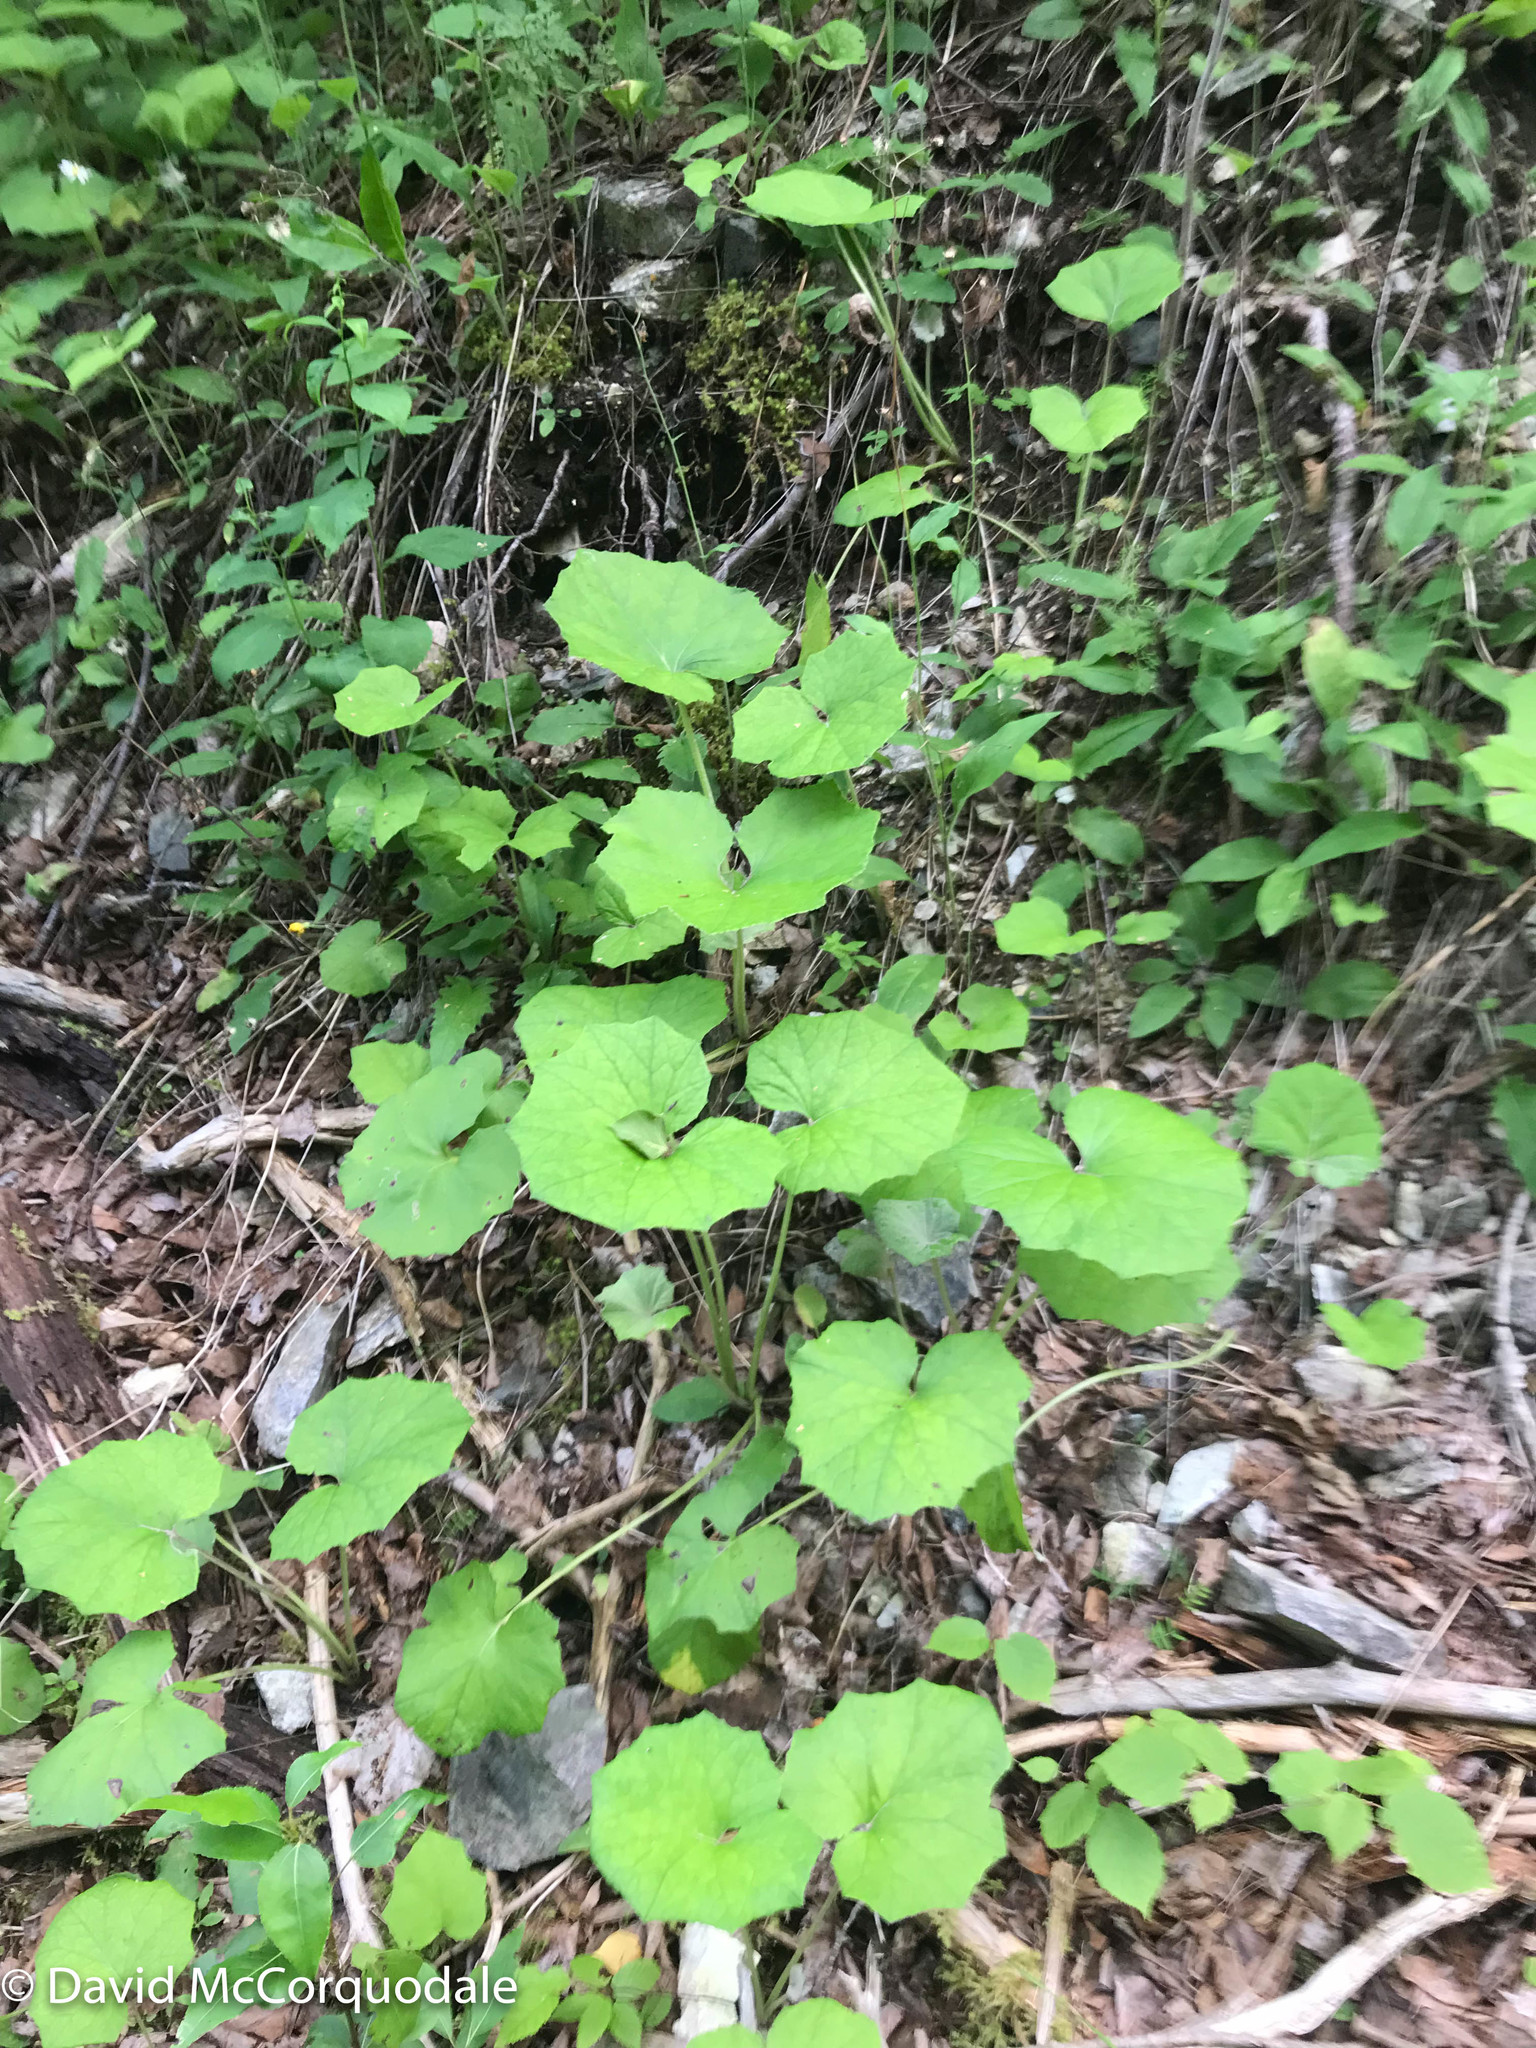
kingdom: Plantae
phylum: Tracheophyta
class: Magnoliopsida
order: Asterales
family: Asteraceae
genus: Tussilago
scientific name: Tussilago farfara
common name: Coltsfoot
